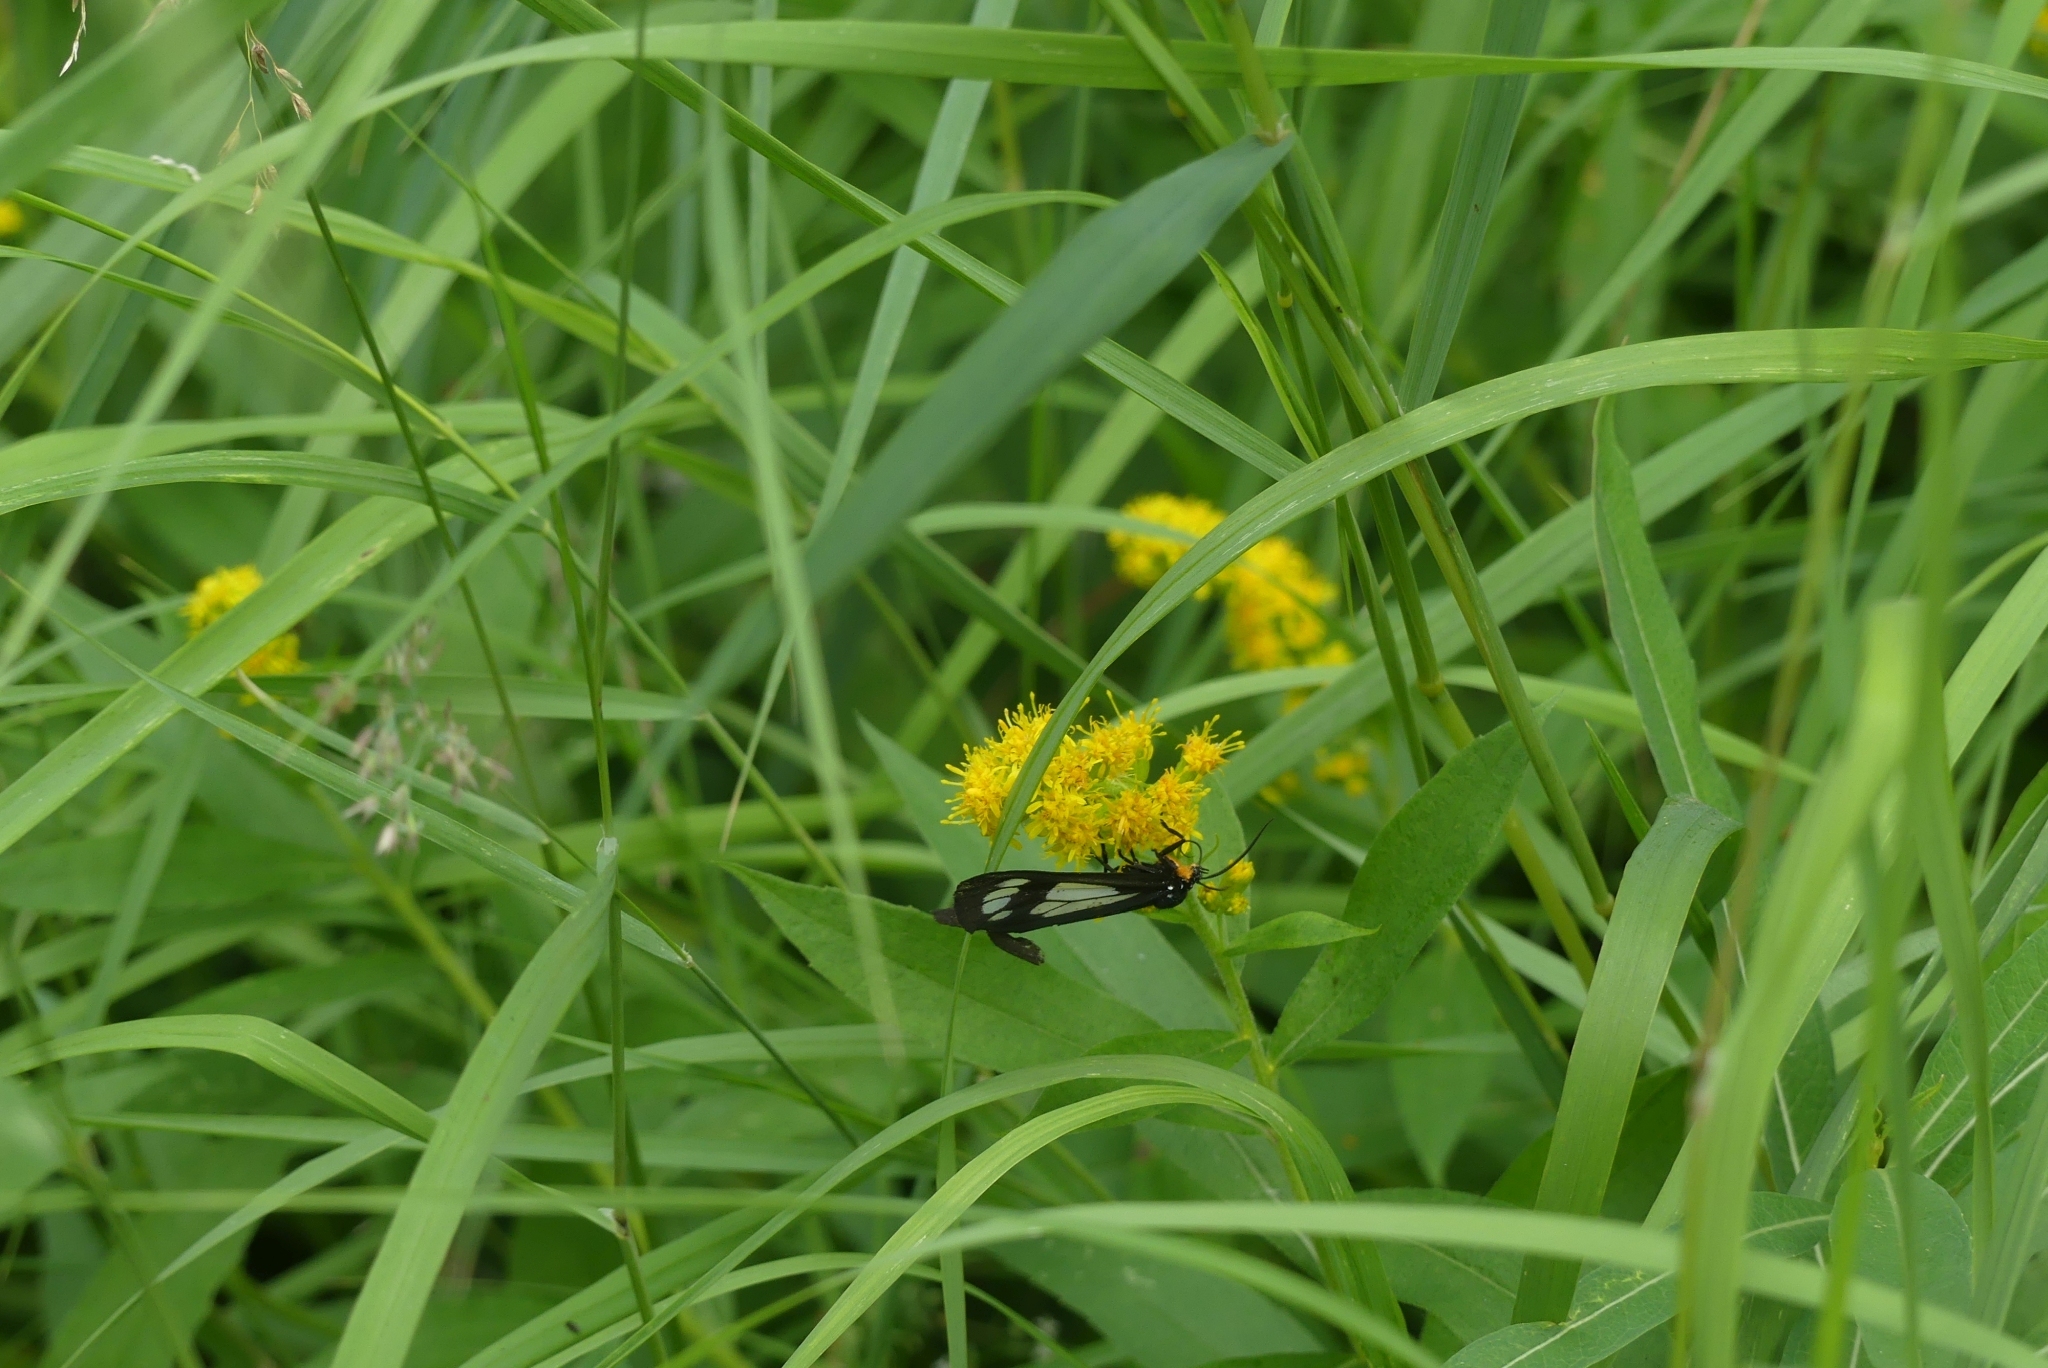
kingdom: Animalia
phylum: Arthropoda
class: Insecta
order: Lepidoptera
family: Erebidae
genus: Gnophaela
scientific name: Gnophaela vermiculata
